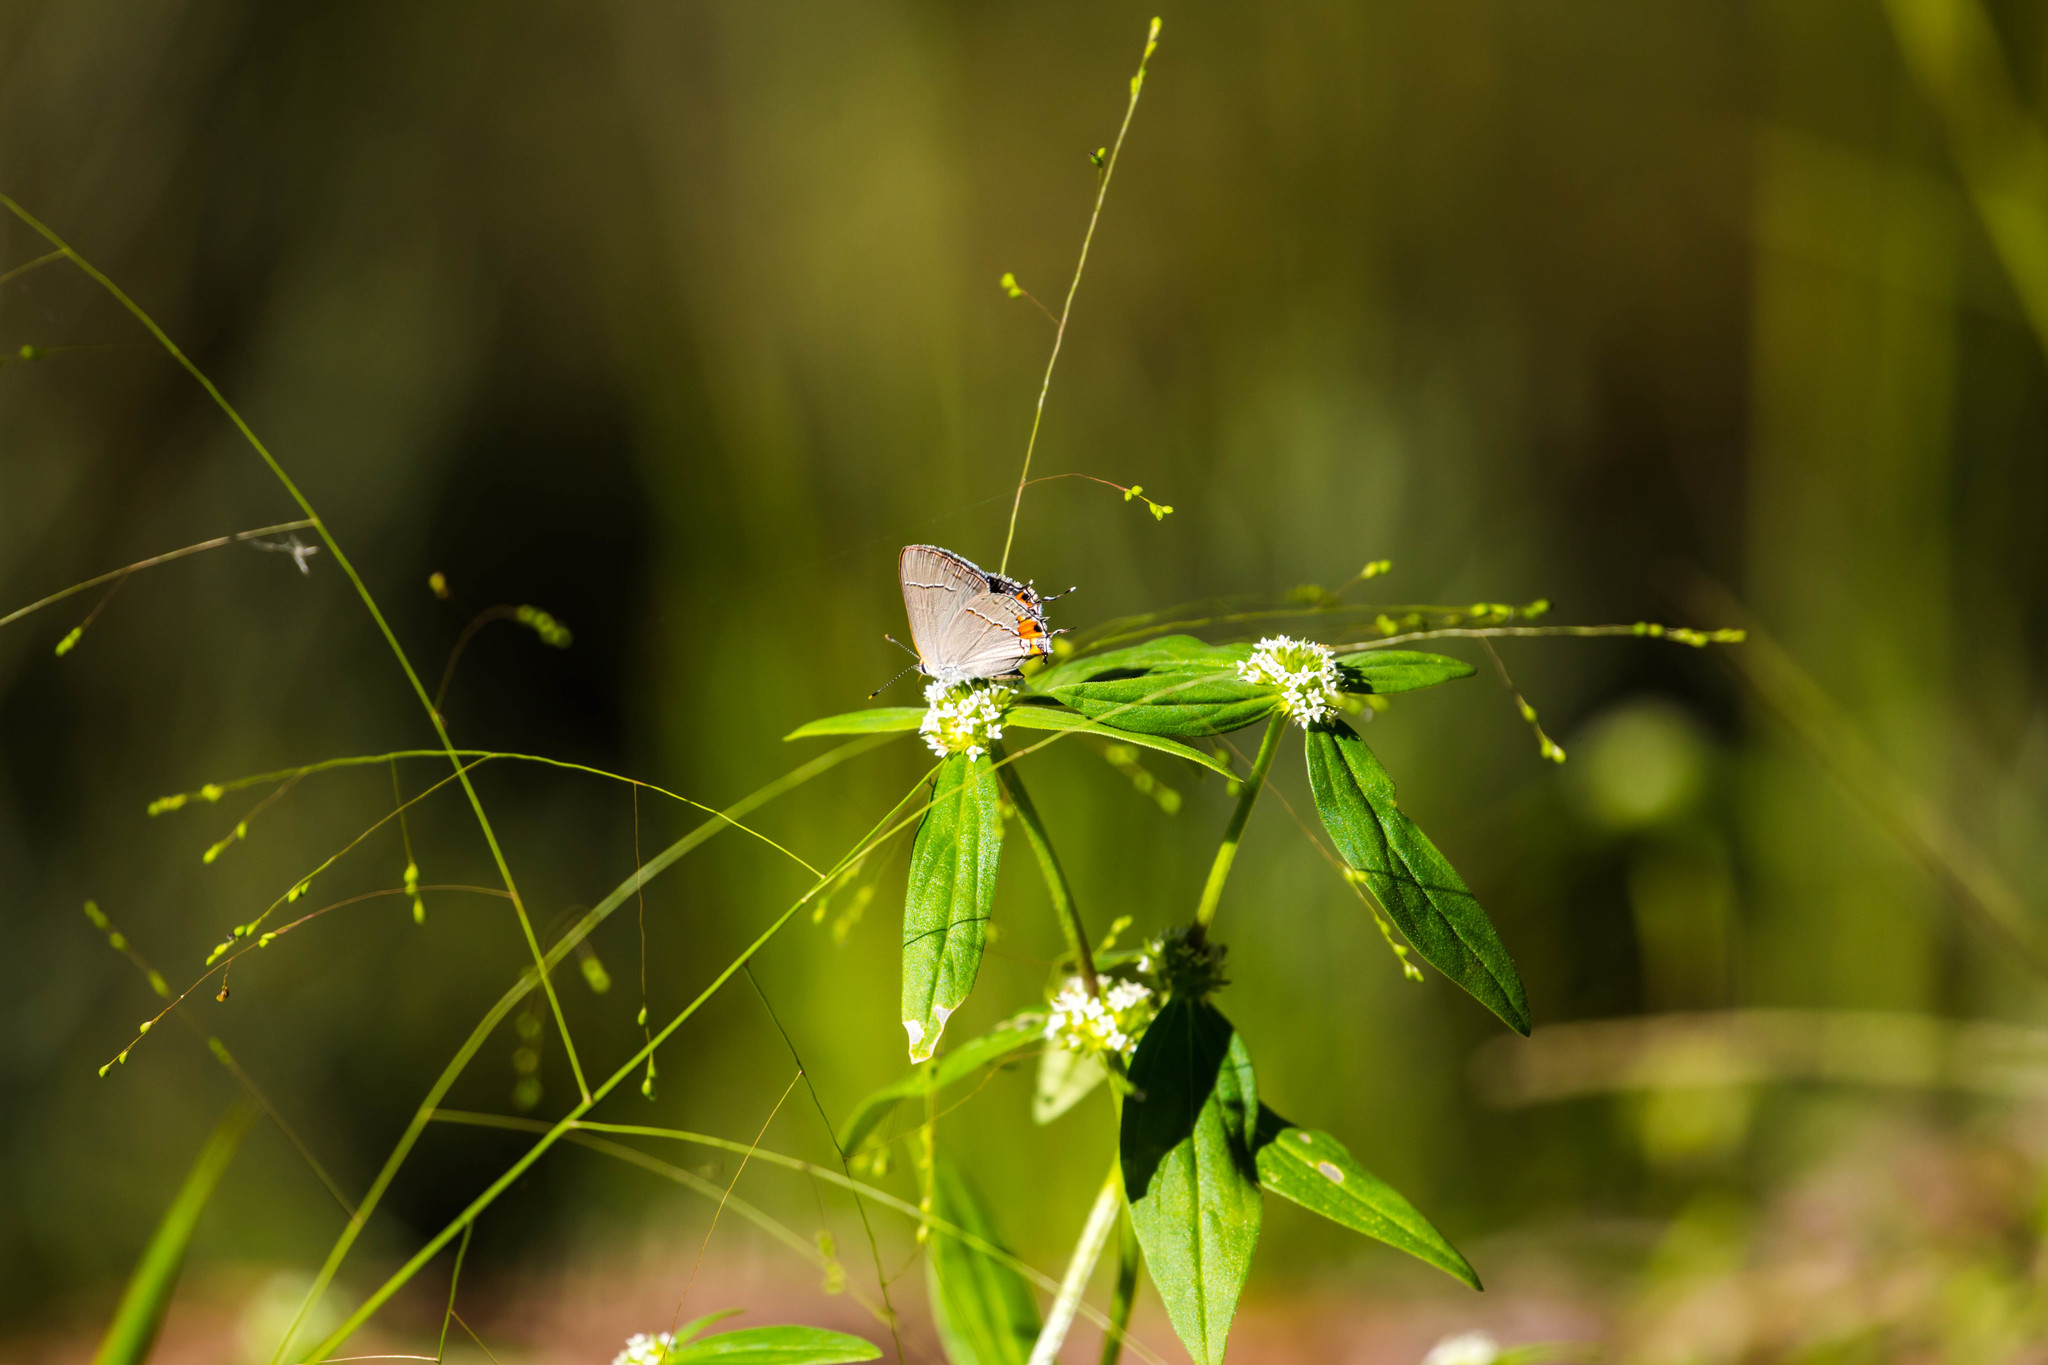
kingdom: Animalia
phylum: Arthropoda
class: Insecta
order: Lepidoptera
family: Lycaenidae
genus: Strymon
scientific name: Strymon melinus
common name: Gray hairstreak
